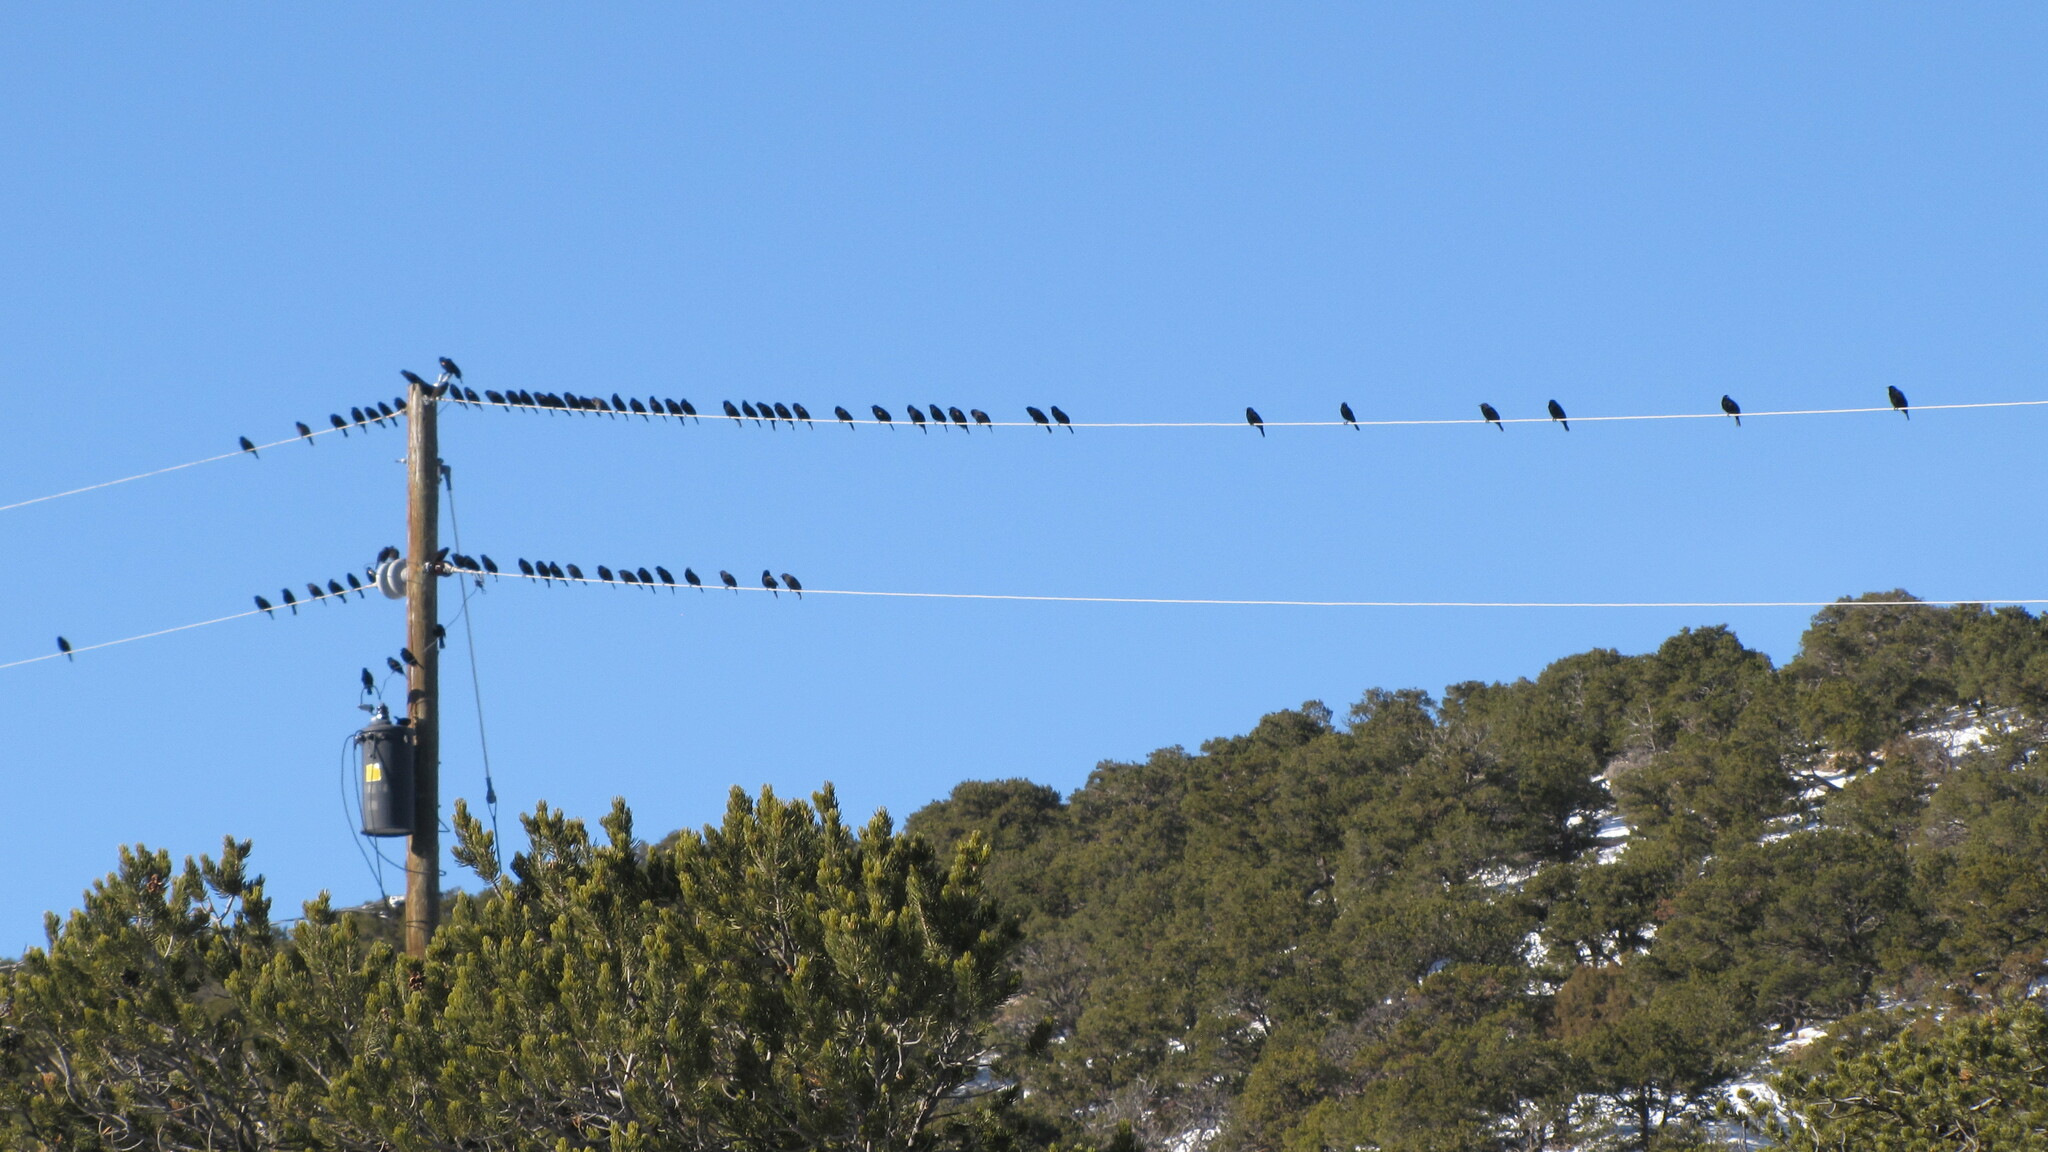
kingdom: Animalia
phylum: Chordata
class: Aves
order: Passeriformes
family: Icteridae
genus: Agelaius
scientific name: Agelaius phoeniceus
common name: Red-winged blackbird
